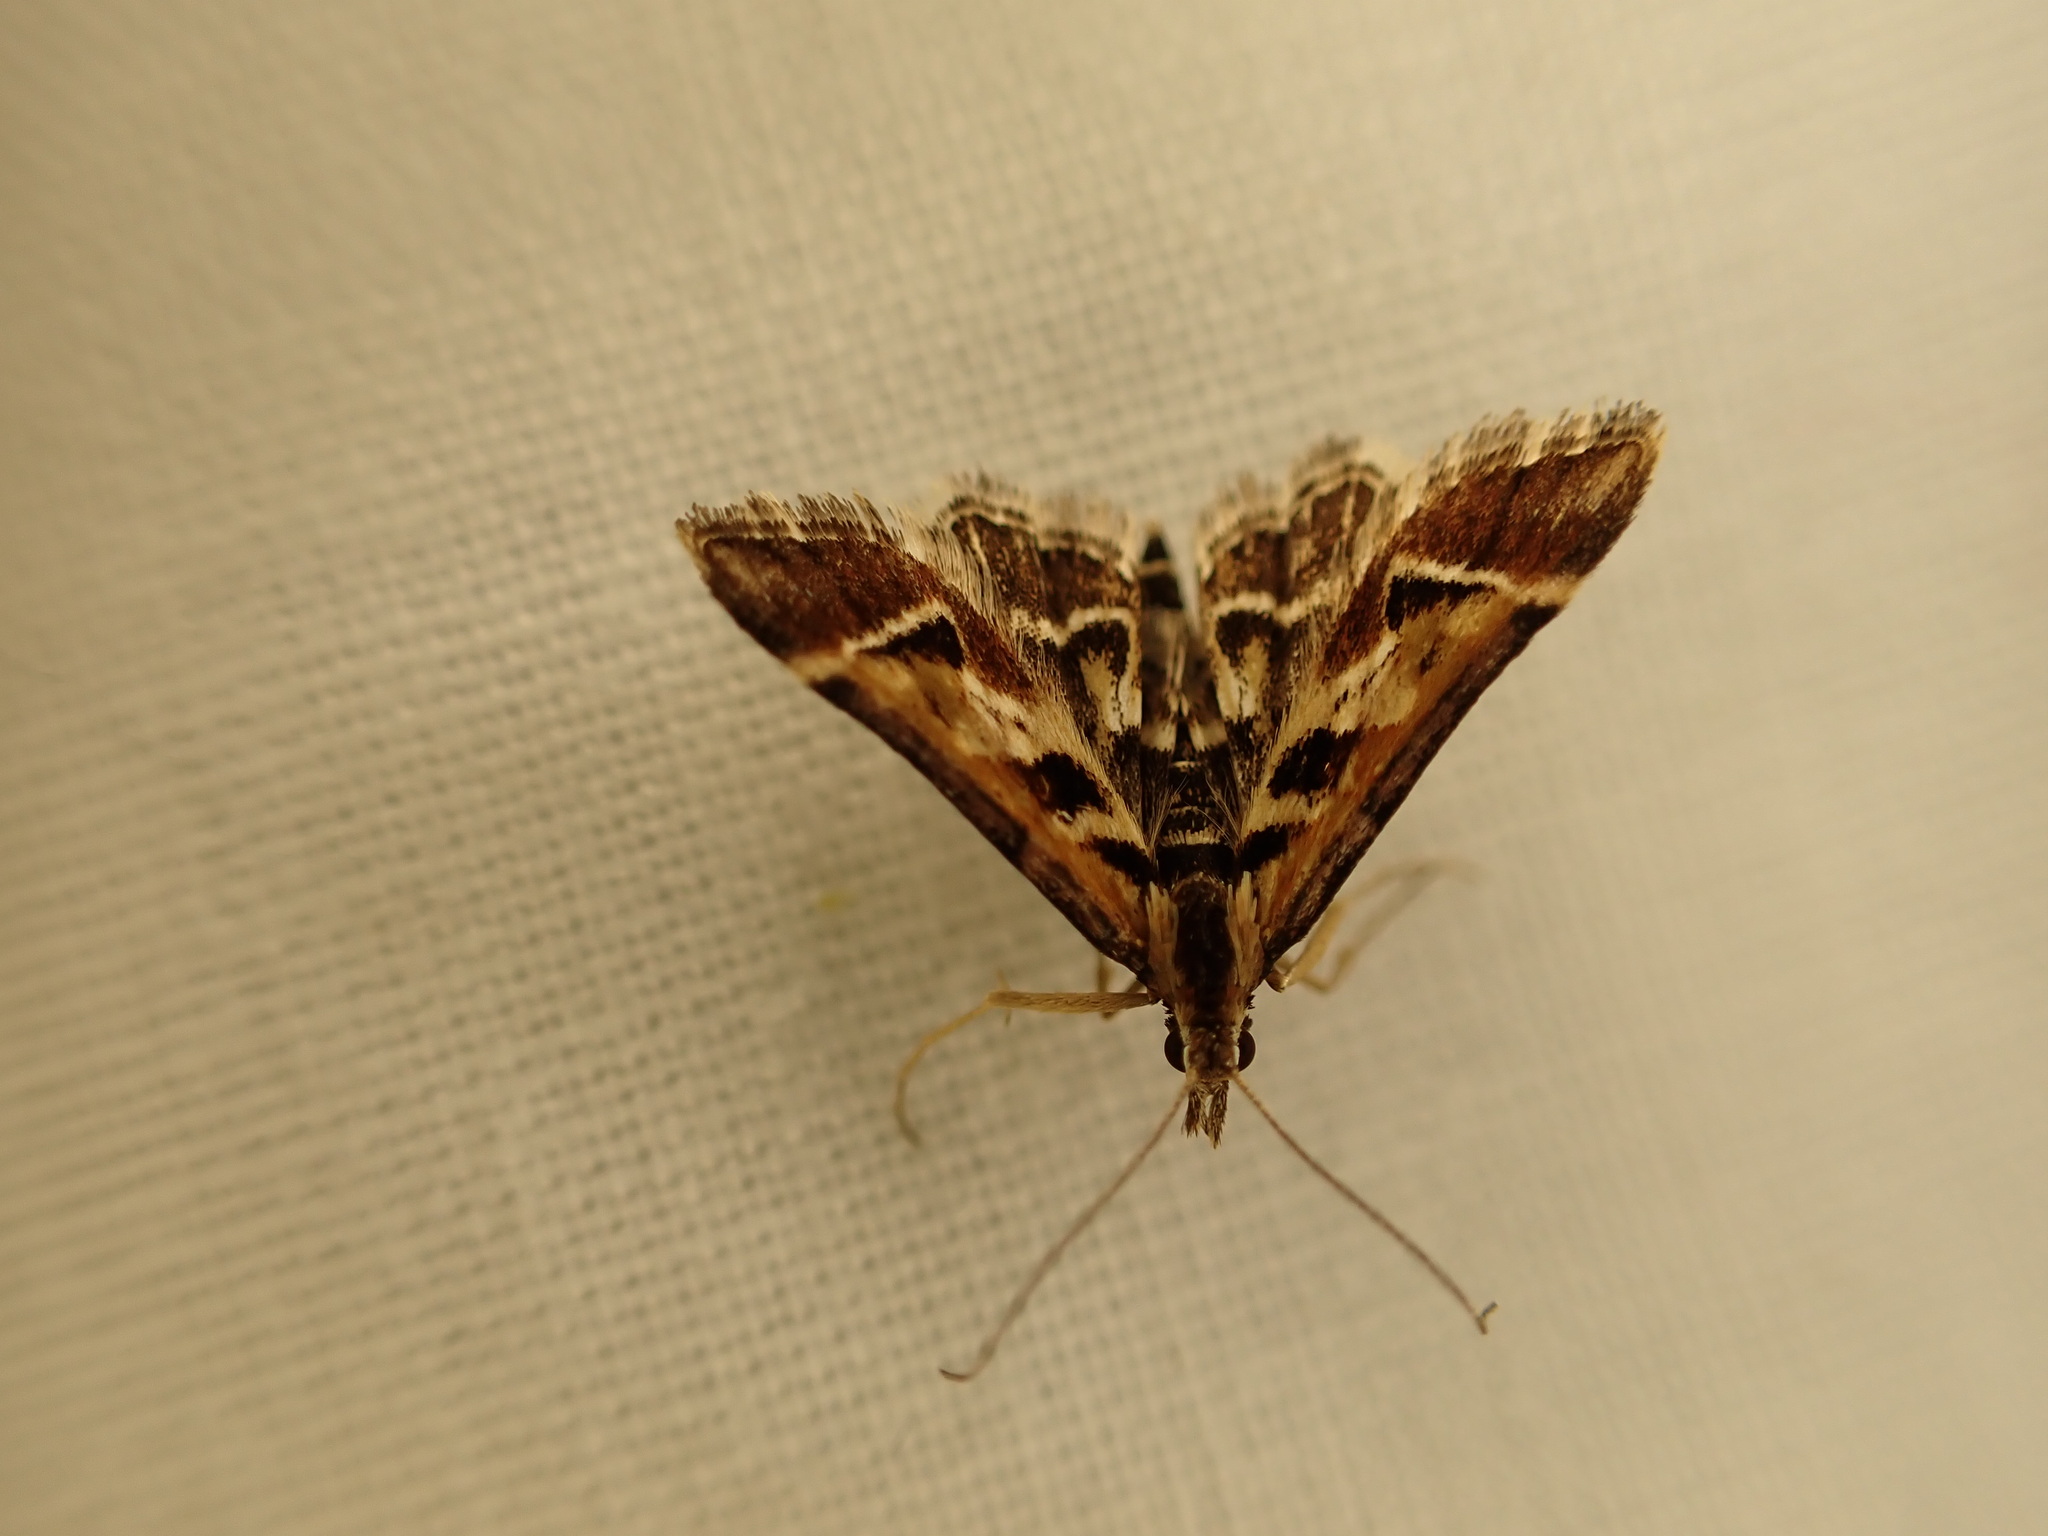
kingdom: Animalia
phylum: Arthropoda
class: Insecta
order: Lepidoptera
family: Crambidae
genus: Diasemia
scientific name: Diasemia grammalis
